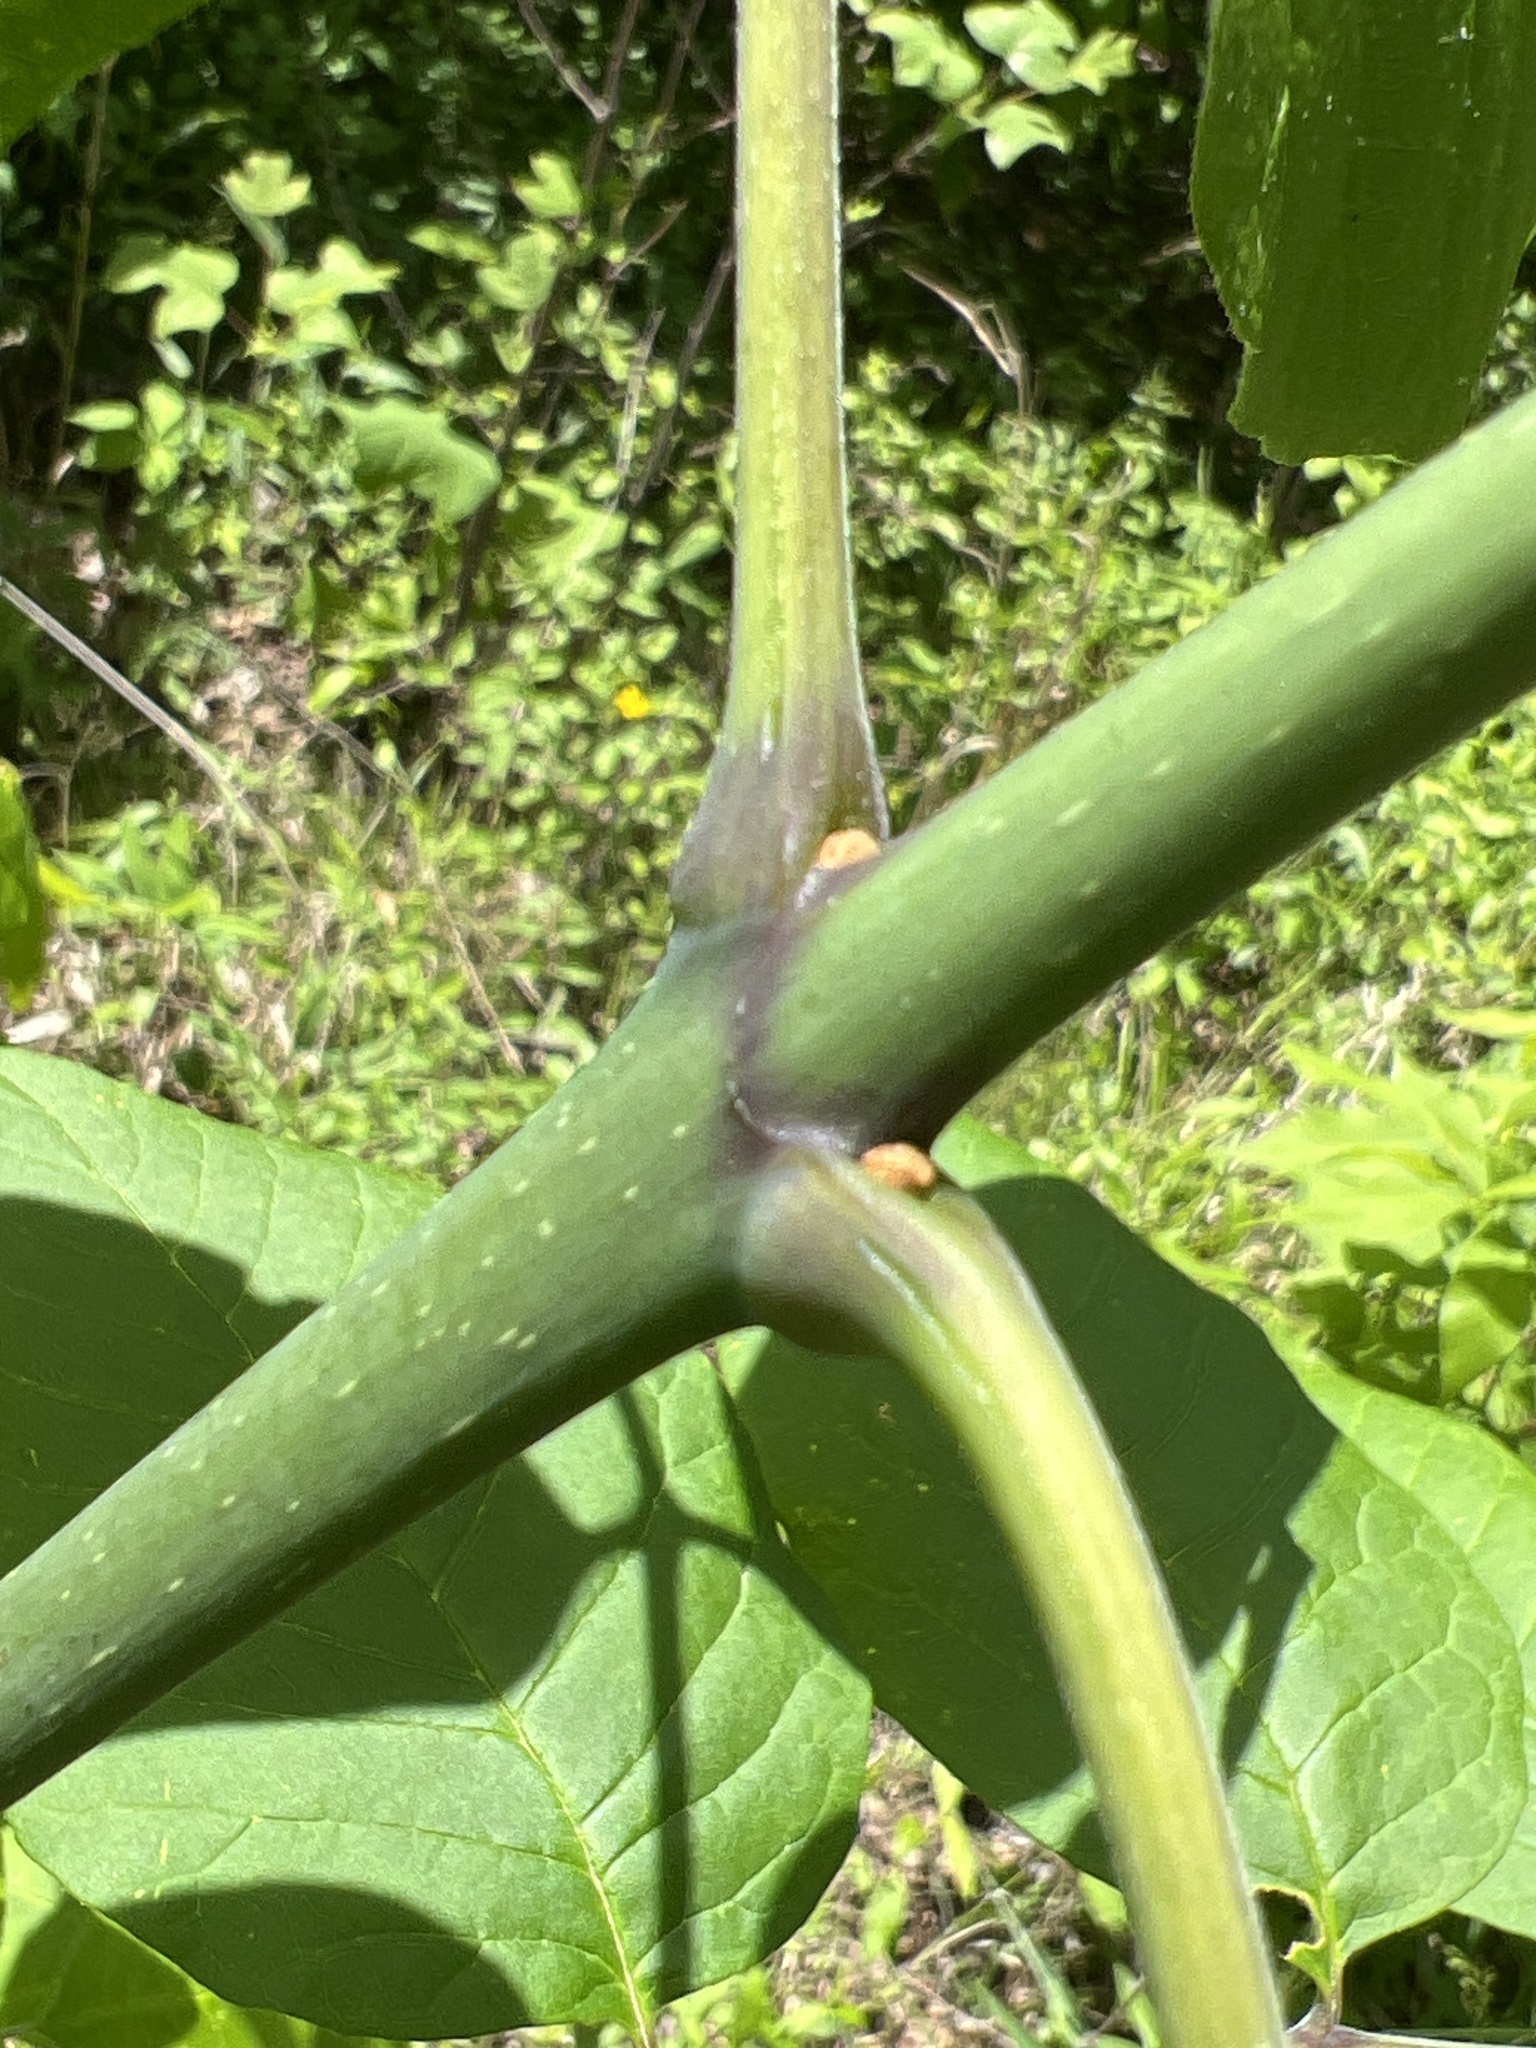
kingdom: Plantae
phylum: Tracheophyta
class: Magnoliopsida
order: Lamiales
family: Oleaceae
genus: Fraxinus
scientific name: Fraxinus americana
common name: White ash
